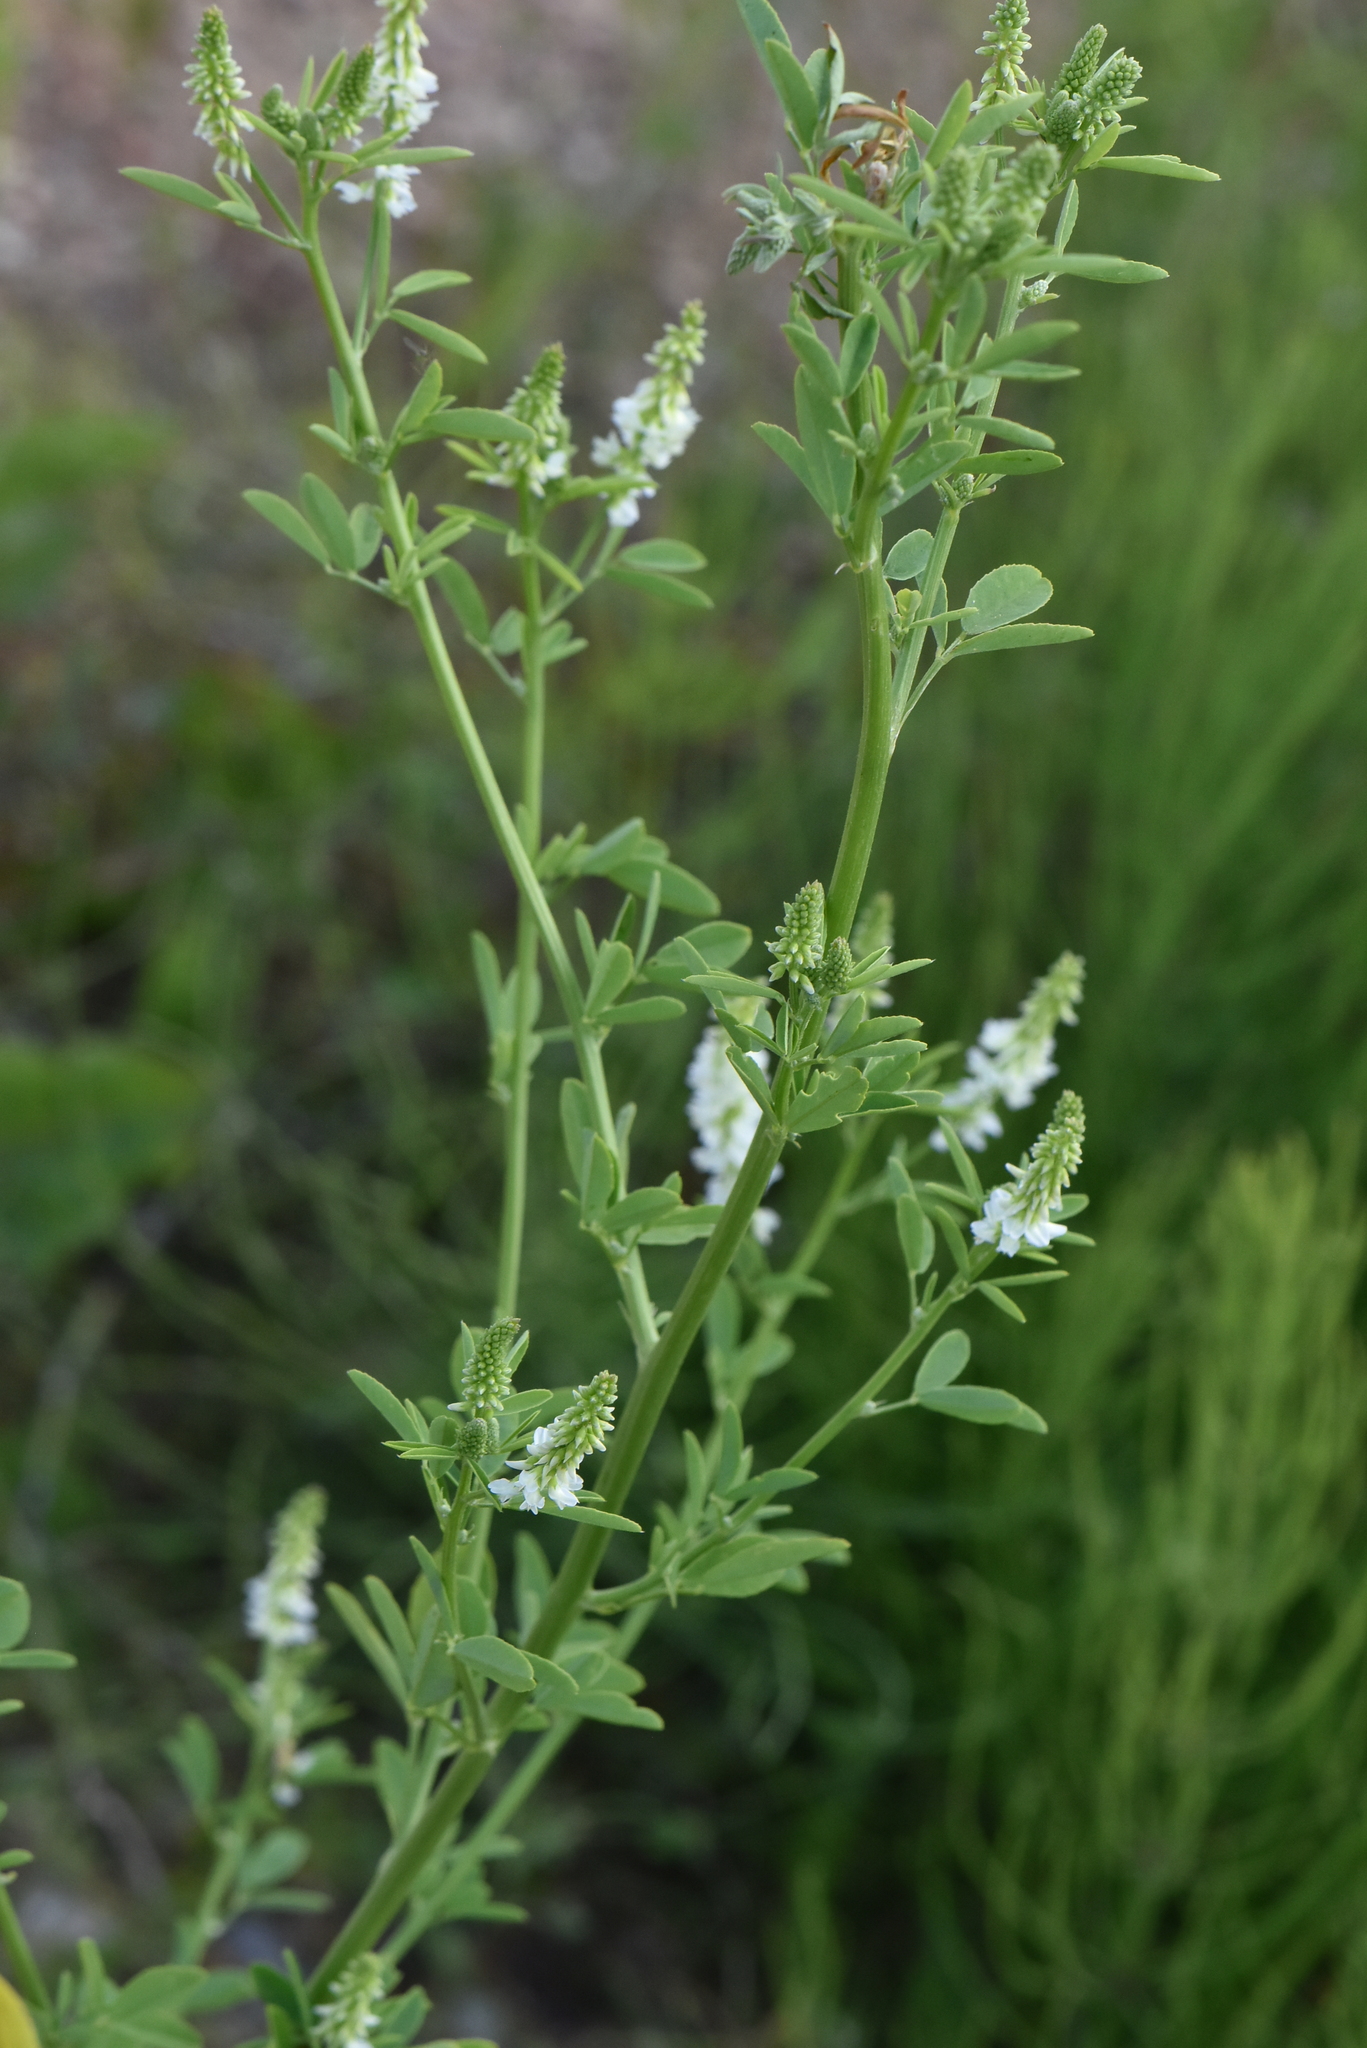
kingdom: Plantae
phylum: Tracheophyta
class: Magnoliopsida
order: Fabales
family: Fabaceae
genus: Melilotus
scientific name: Melilotus albus
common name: White melilot
